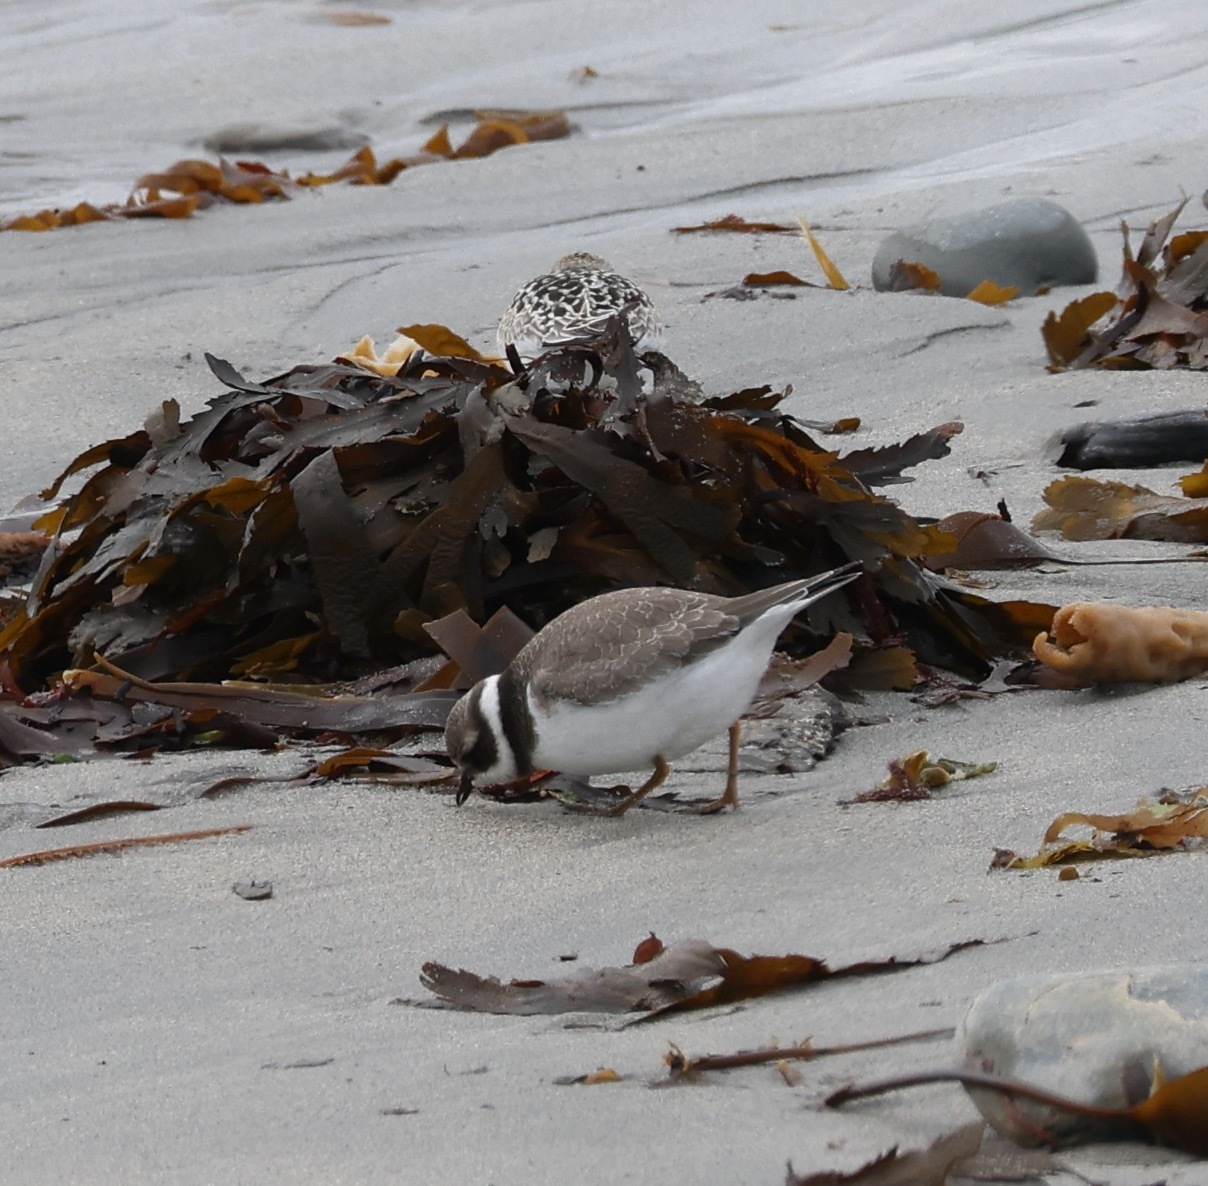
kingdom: Animalia
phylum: Chordata
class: Aves
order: Charadriiformes
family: Charadriidae
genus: Charadrius
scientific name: Charadrius hiaticula
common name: Common ringed plover
